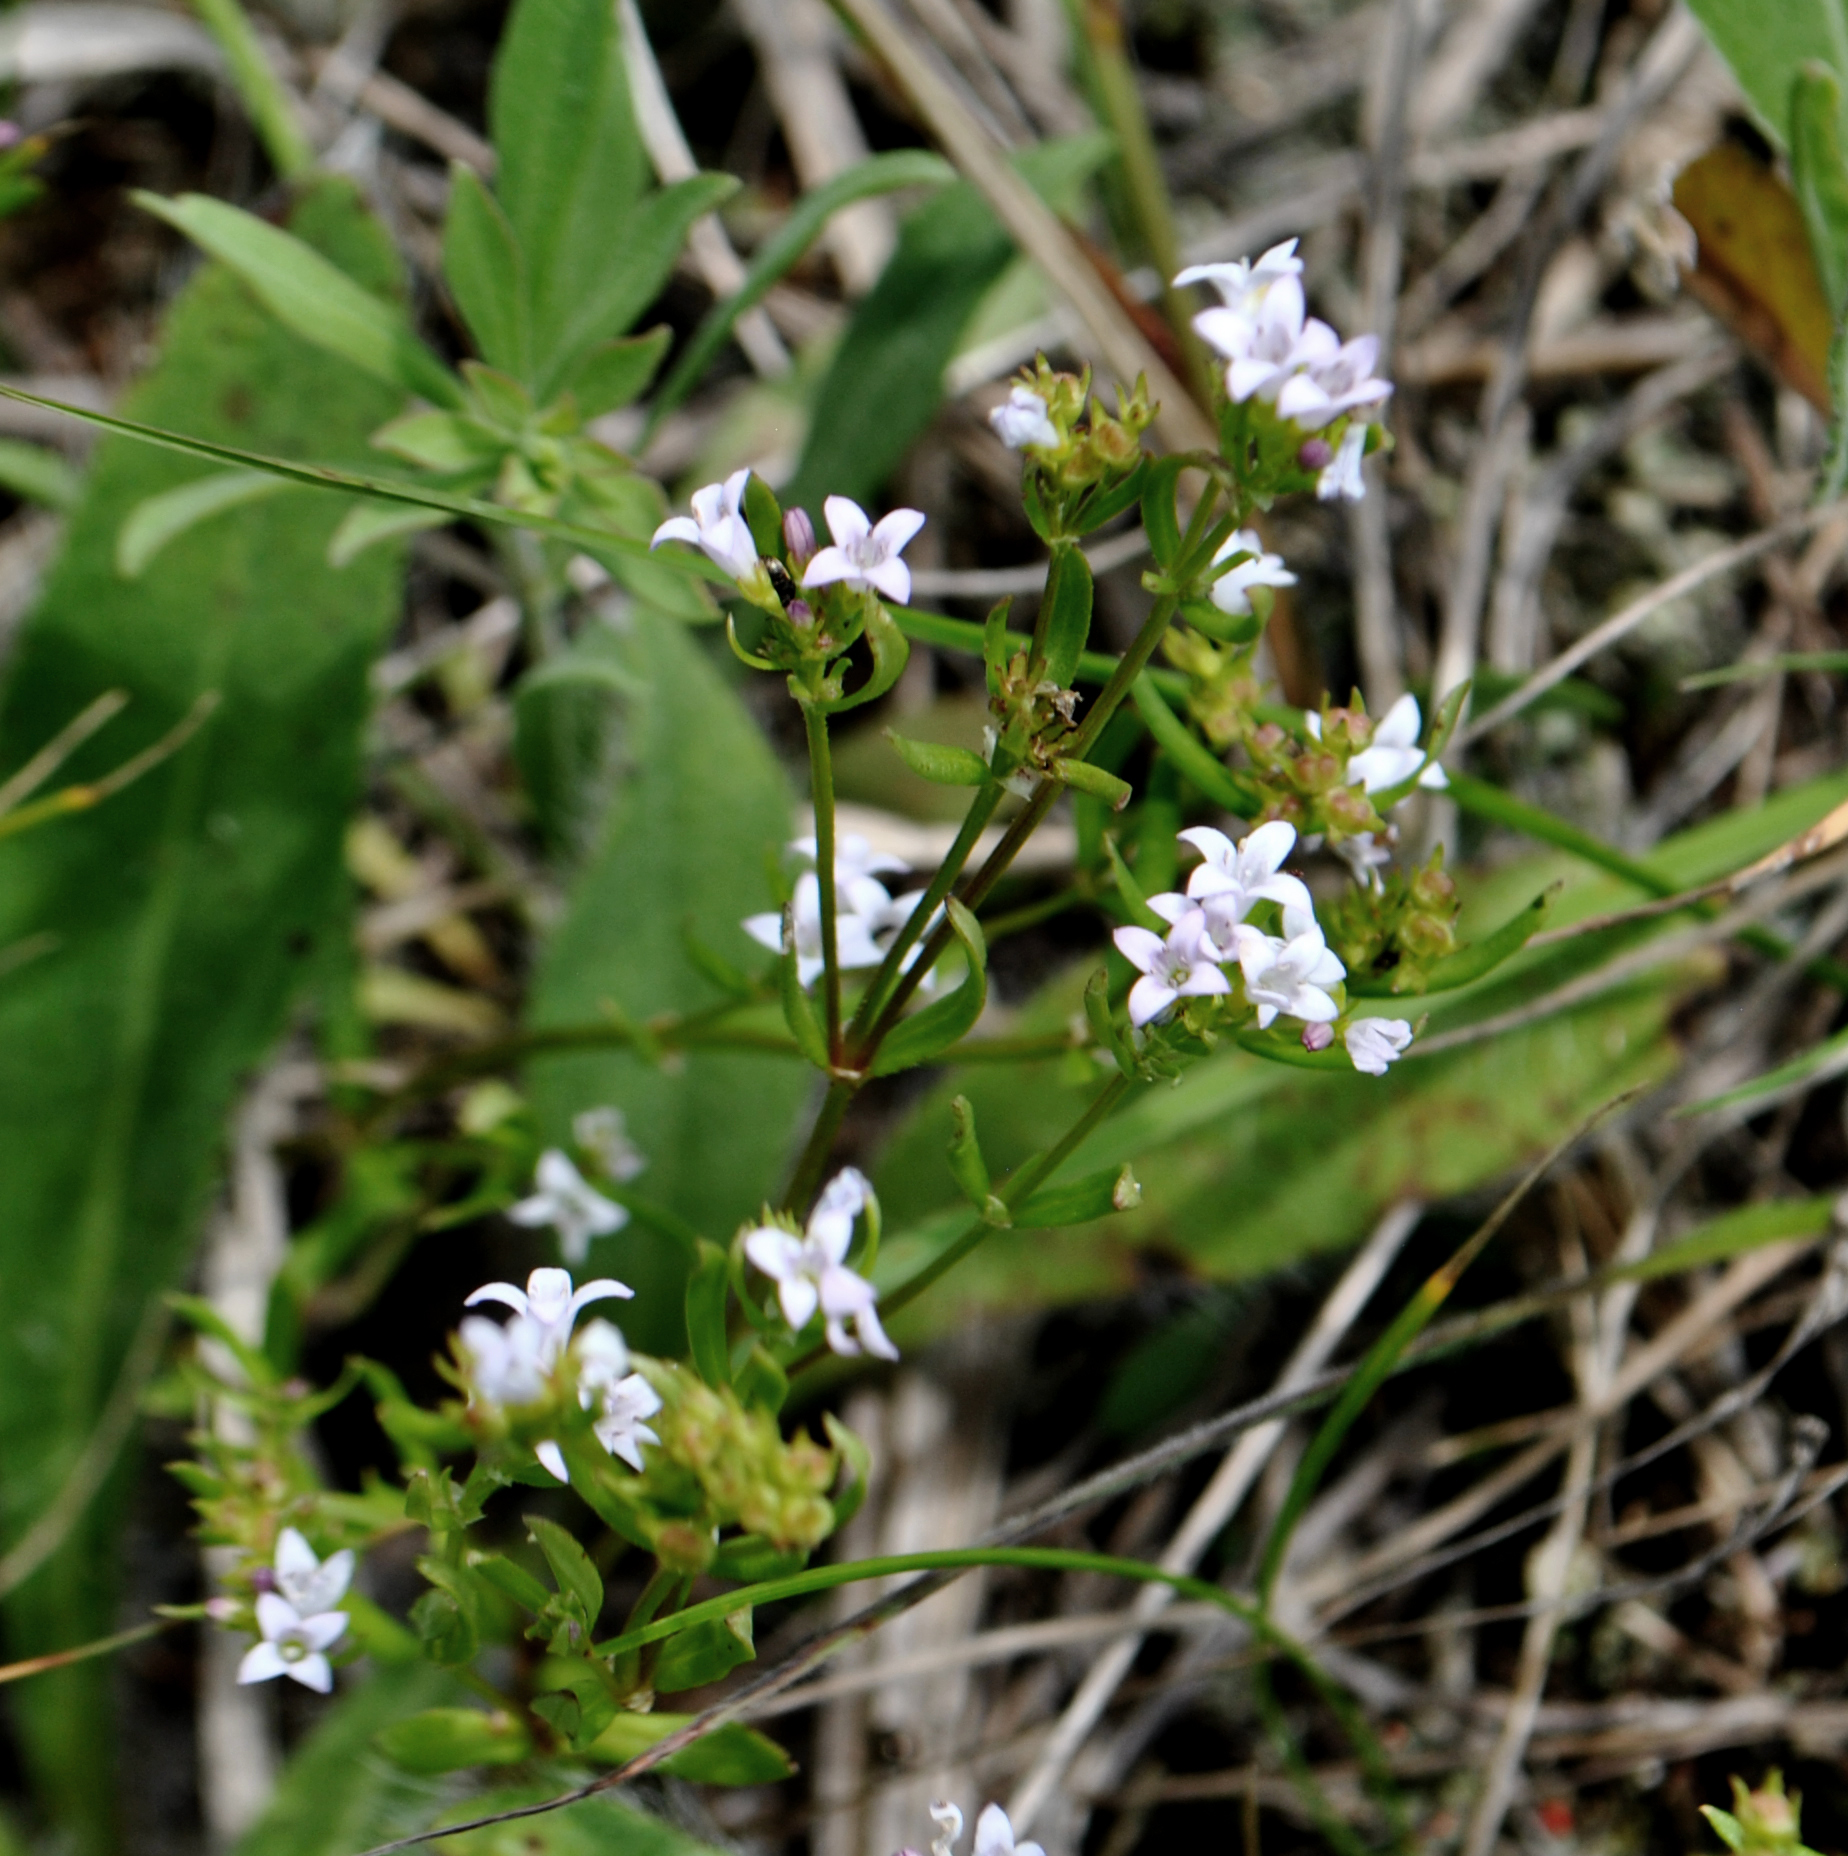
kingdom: Plantae
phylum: Tracheophyta
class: Magnoliopsida
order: Gentianales
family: Rubiaceae
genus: Houstonia
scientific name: Houstonia longifolia
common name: Long-leaved bluets
